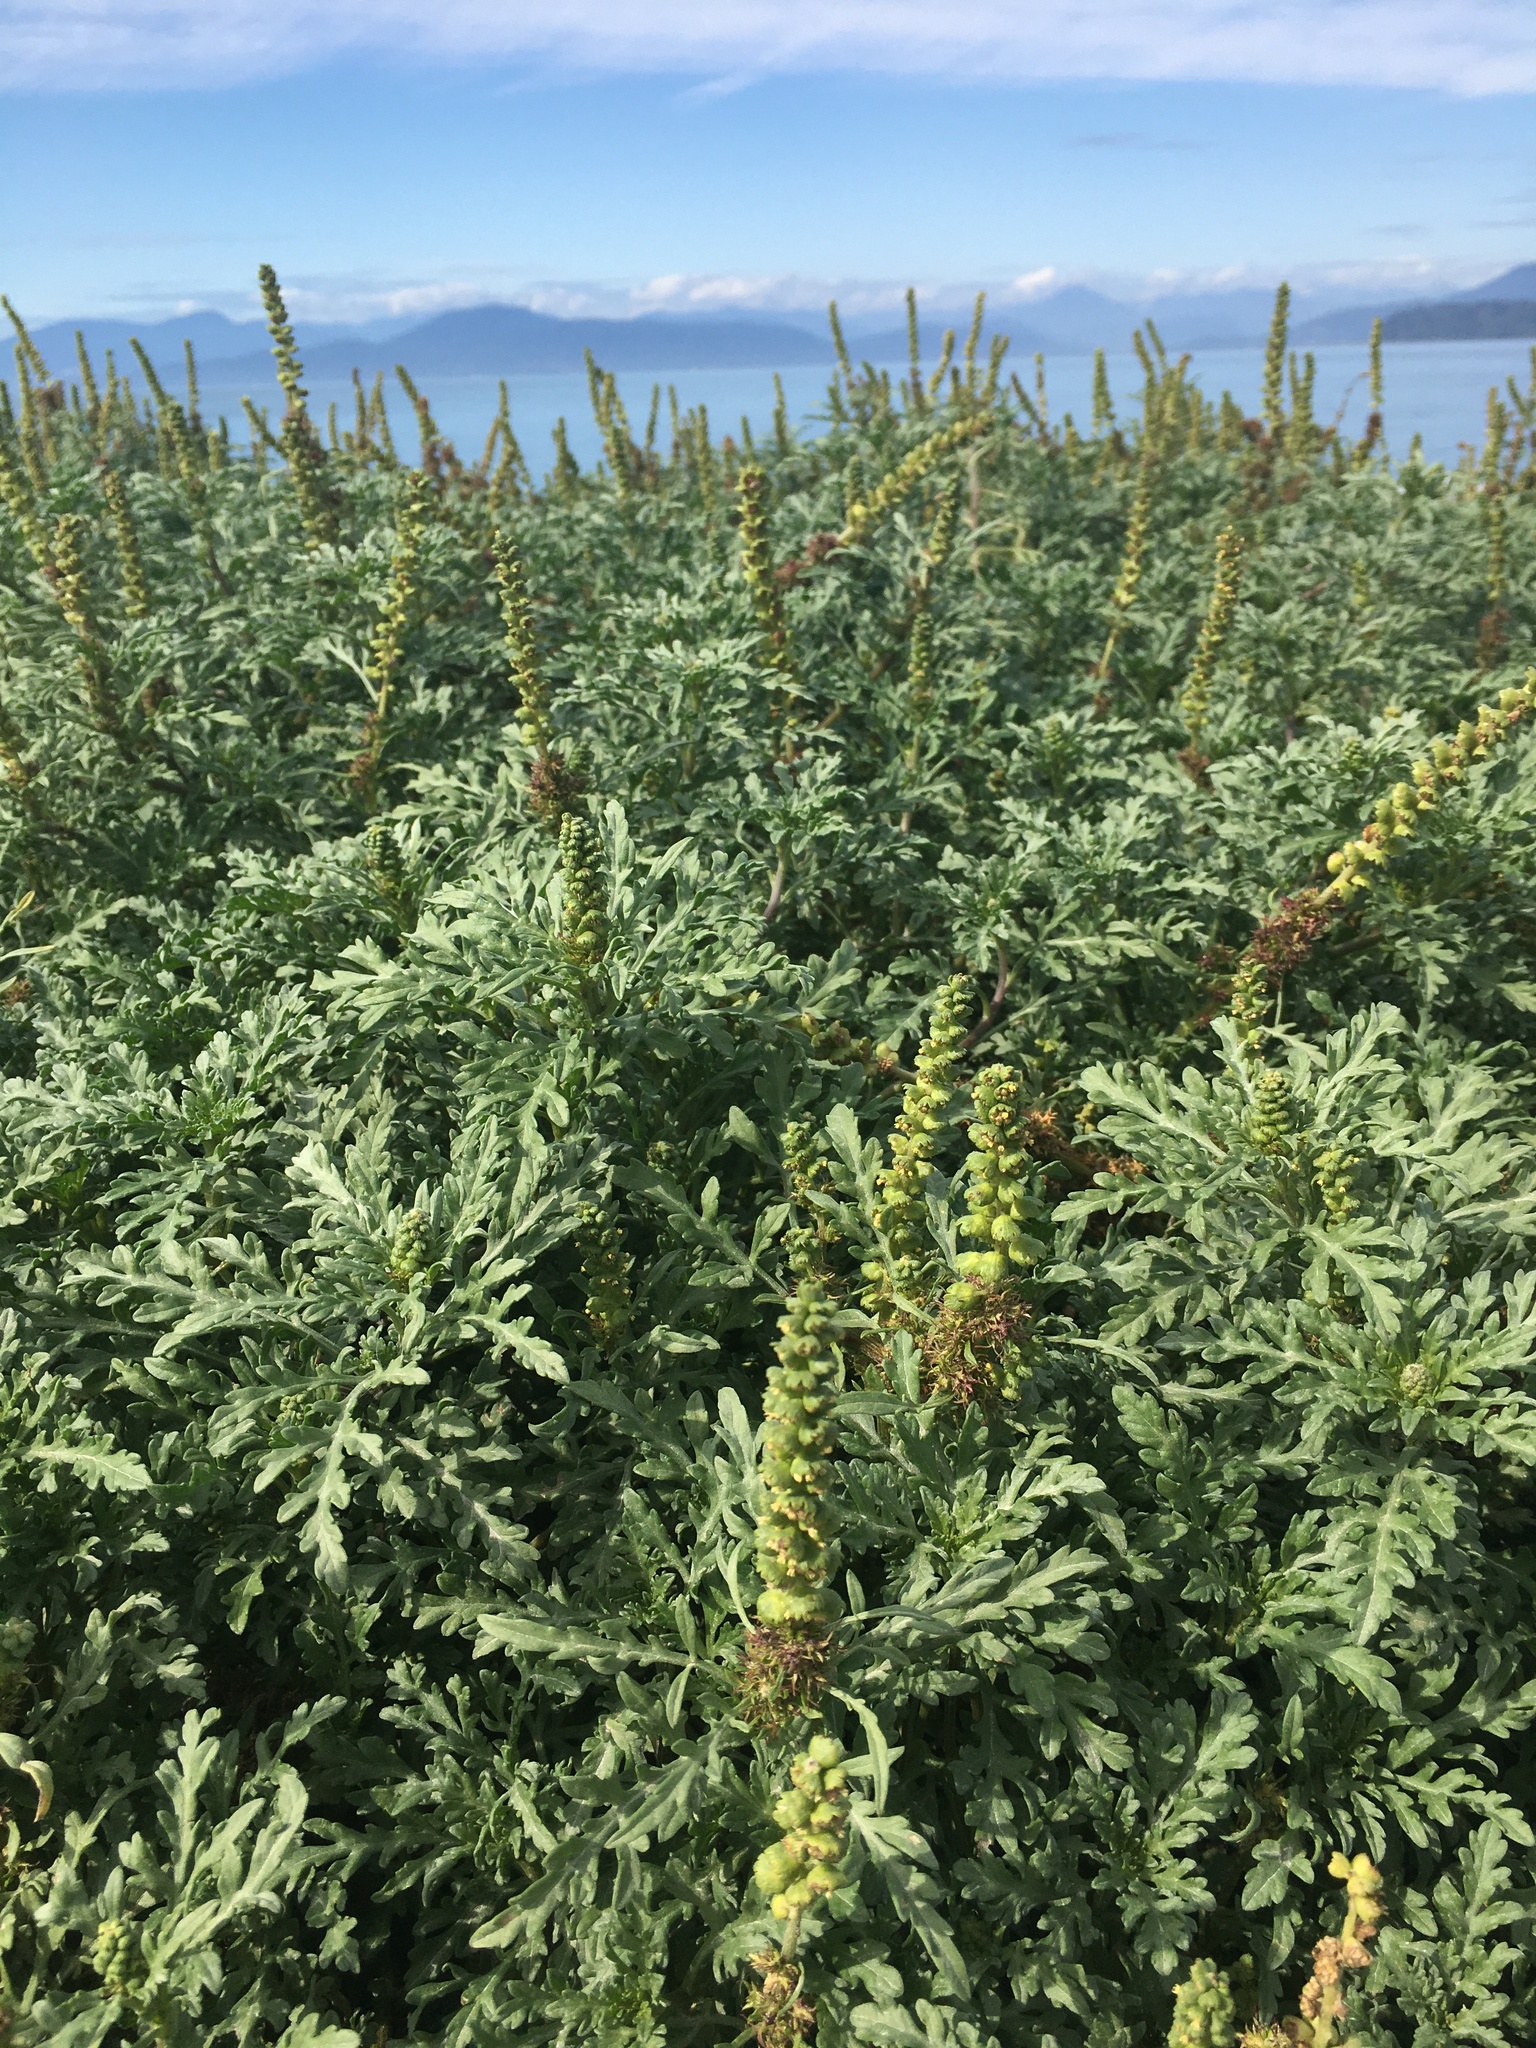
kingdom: Plantae
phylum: Tracheophyta
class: Magnoliopsida
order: Asterales
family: Asteraceae
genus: Ambrosia
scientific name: Ambrosia chamissonis
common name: Beachbur
